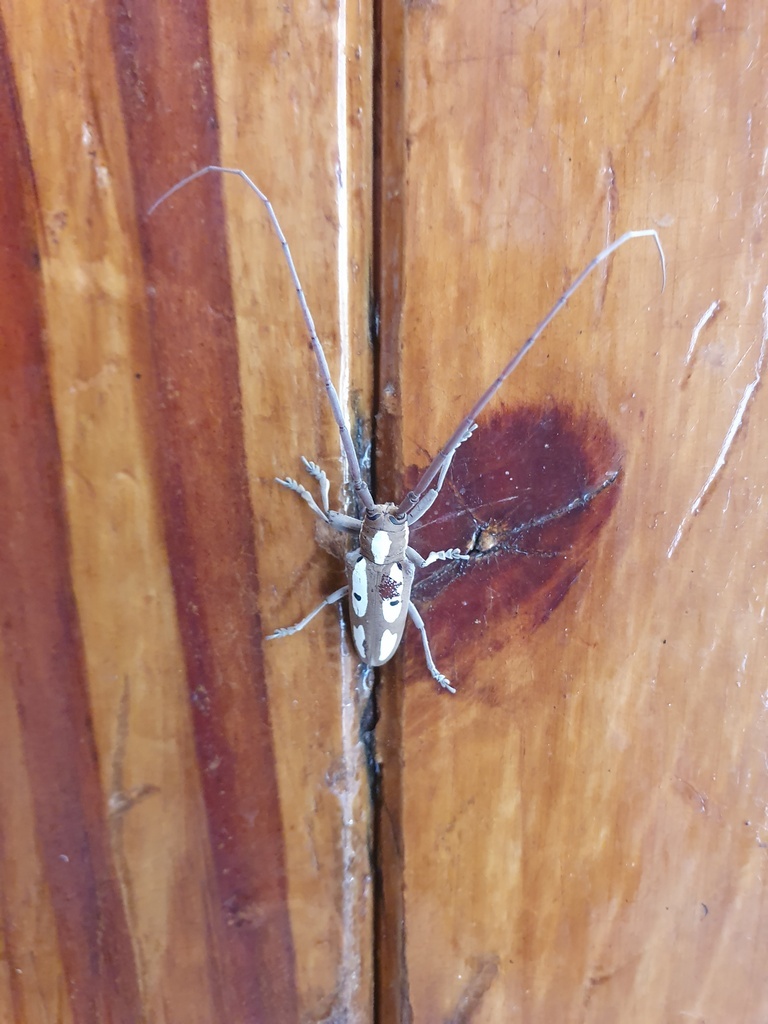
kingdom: Animalia
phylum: Arthropoda
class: Insecta
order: Coleoptera
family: Cerambycidae
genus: Prosopocera
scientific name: Prosopocera paykullii
